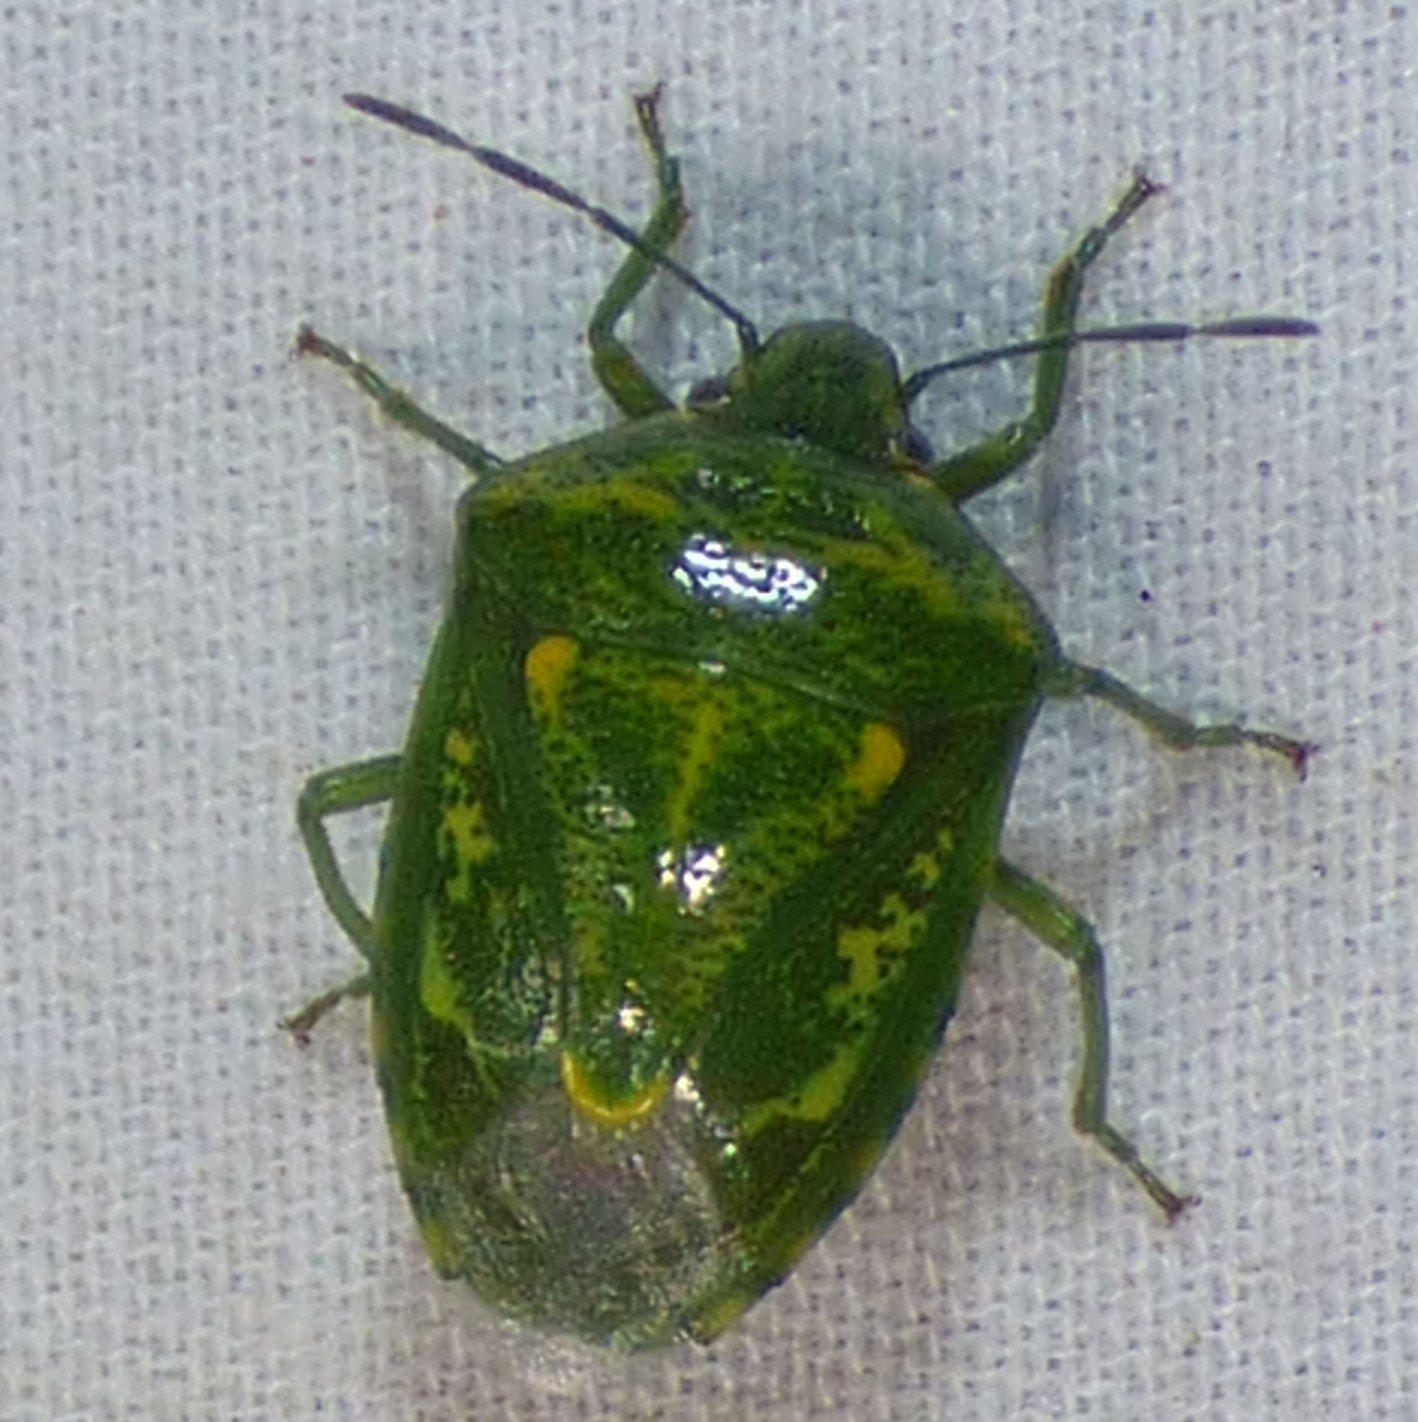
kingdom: Animalia
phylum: Arthropoda
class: Insecta
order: Hemiptera
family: Pentatomidae
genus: Banasa
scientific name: Banasa euchlora
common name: Cedar berry bug
